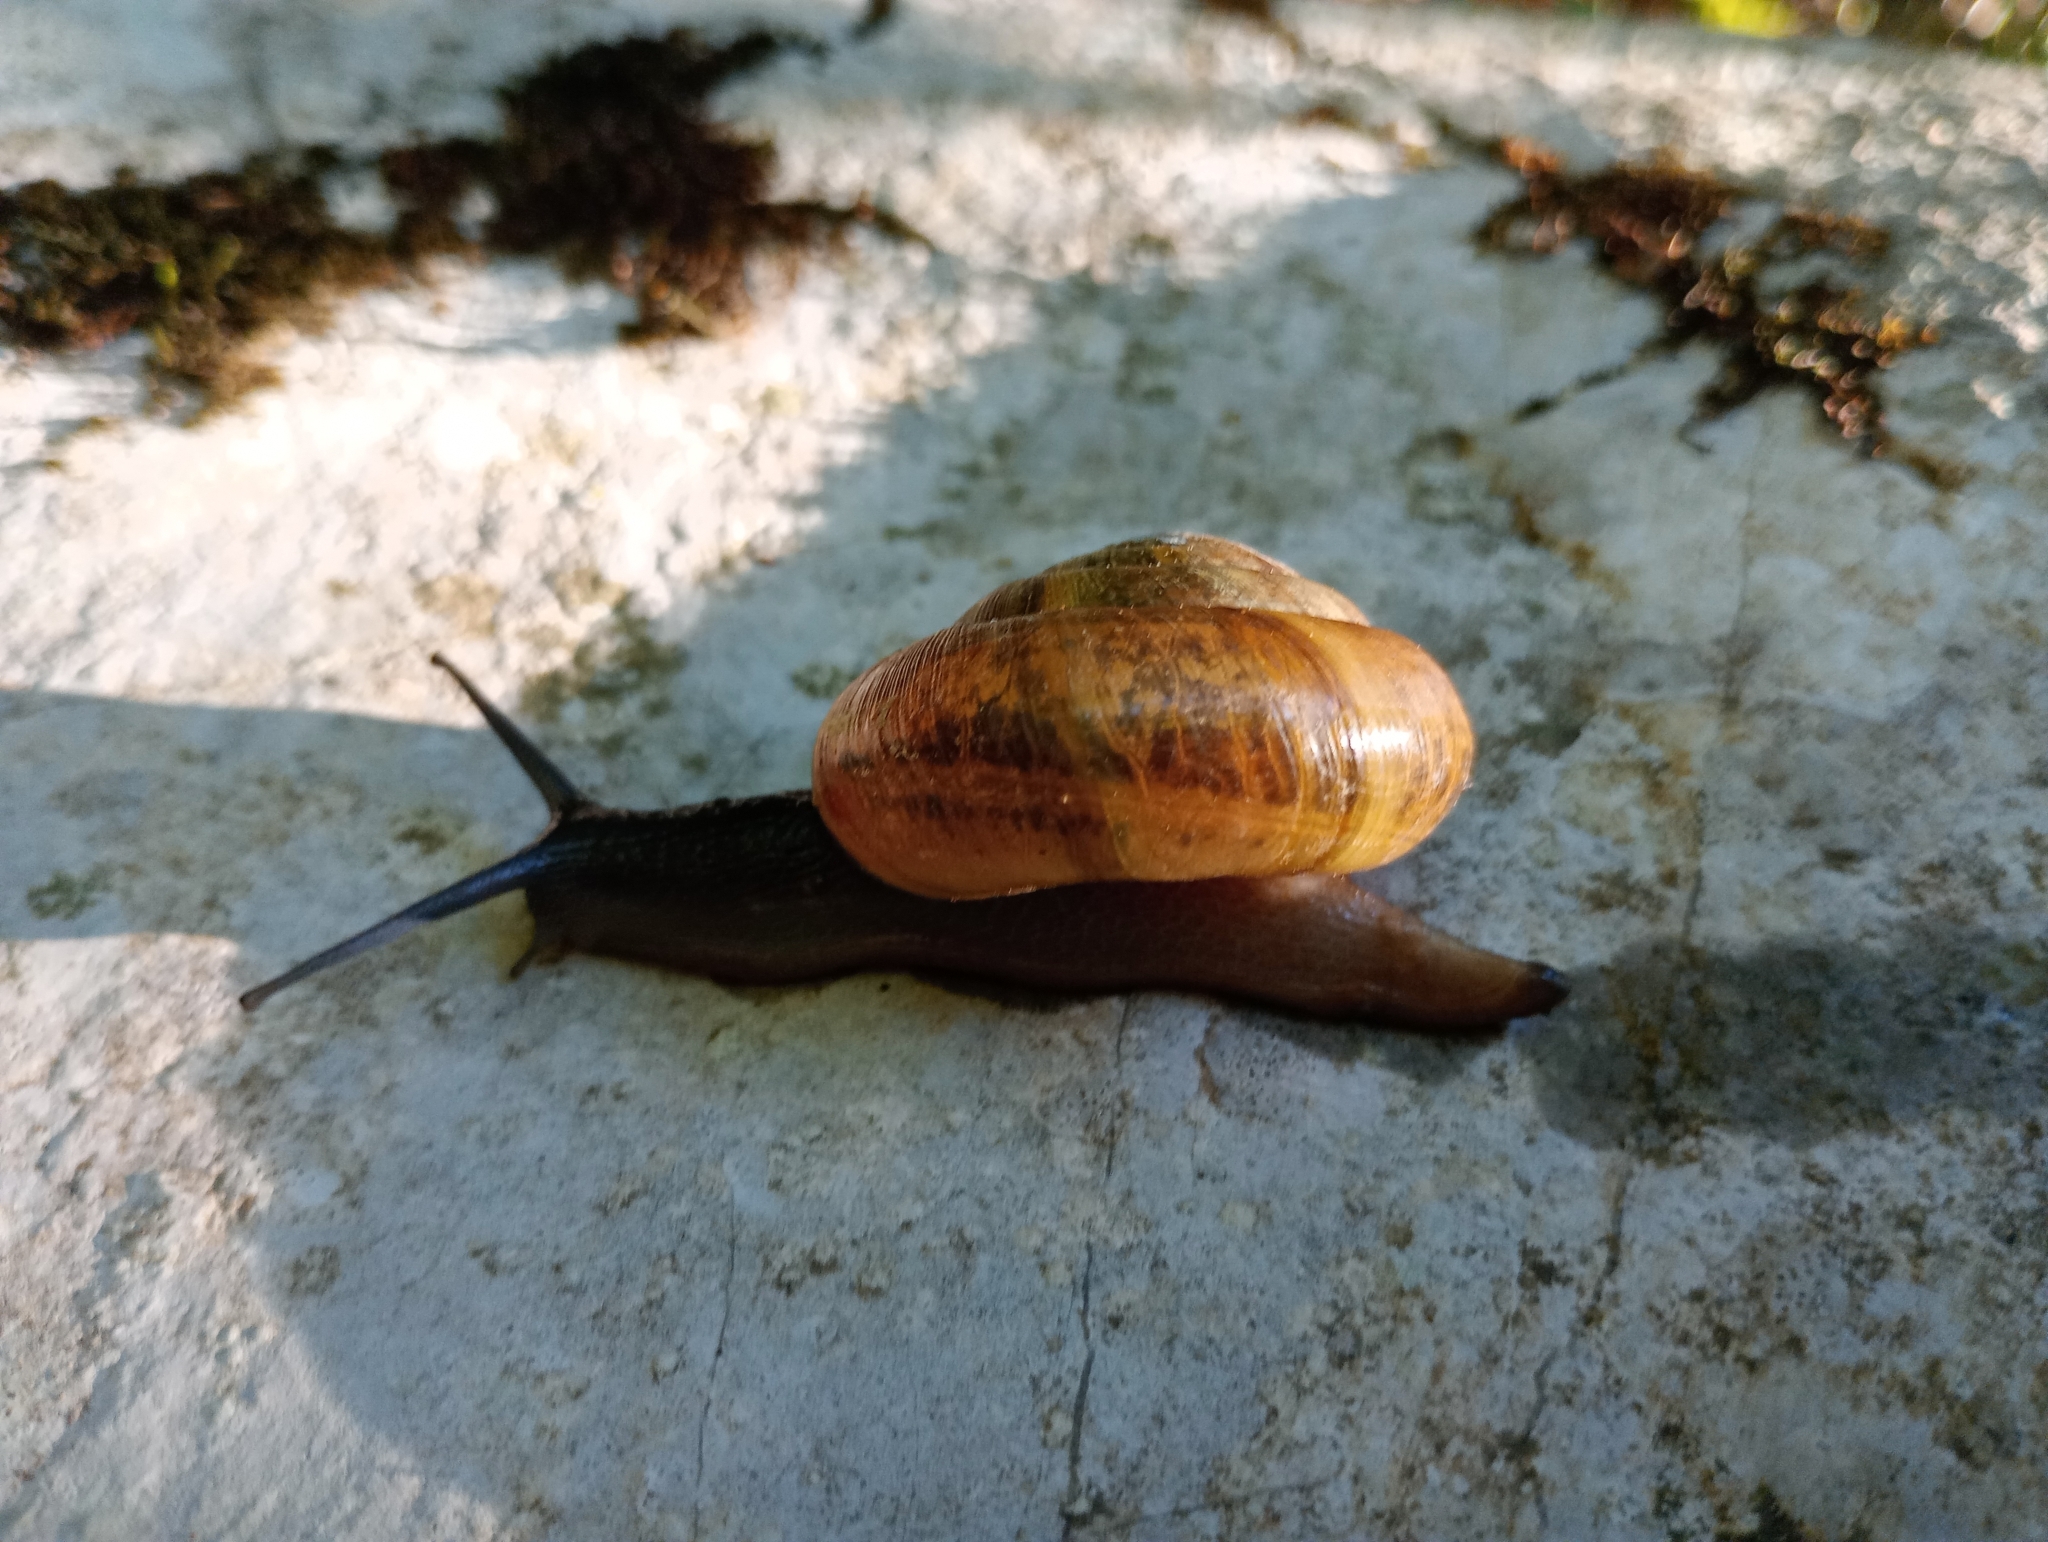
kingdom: Animalia
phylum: Mollusca
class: Gastropoda
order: Stylommatophora
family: Zonitidae
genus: Aegopis
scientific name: Aegopis verticillus
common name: Giant glass snail
